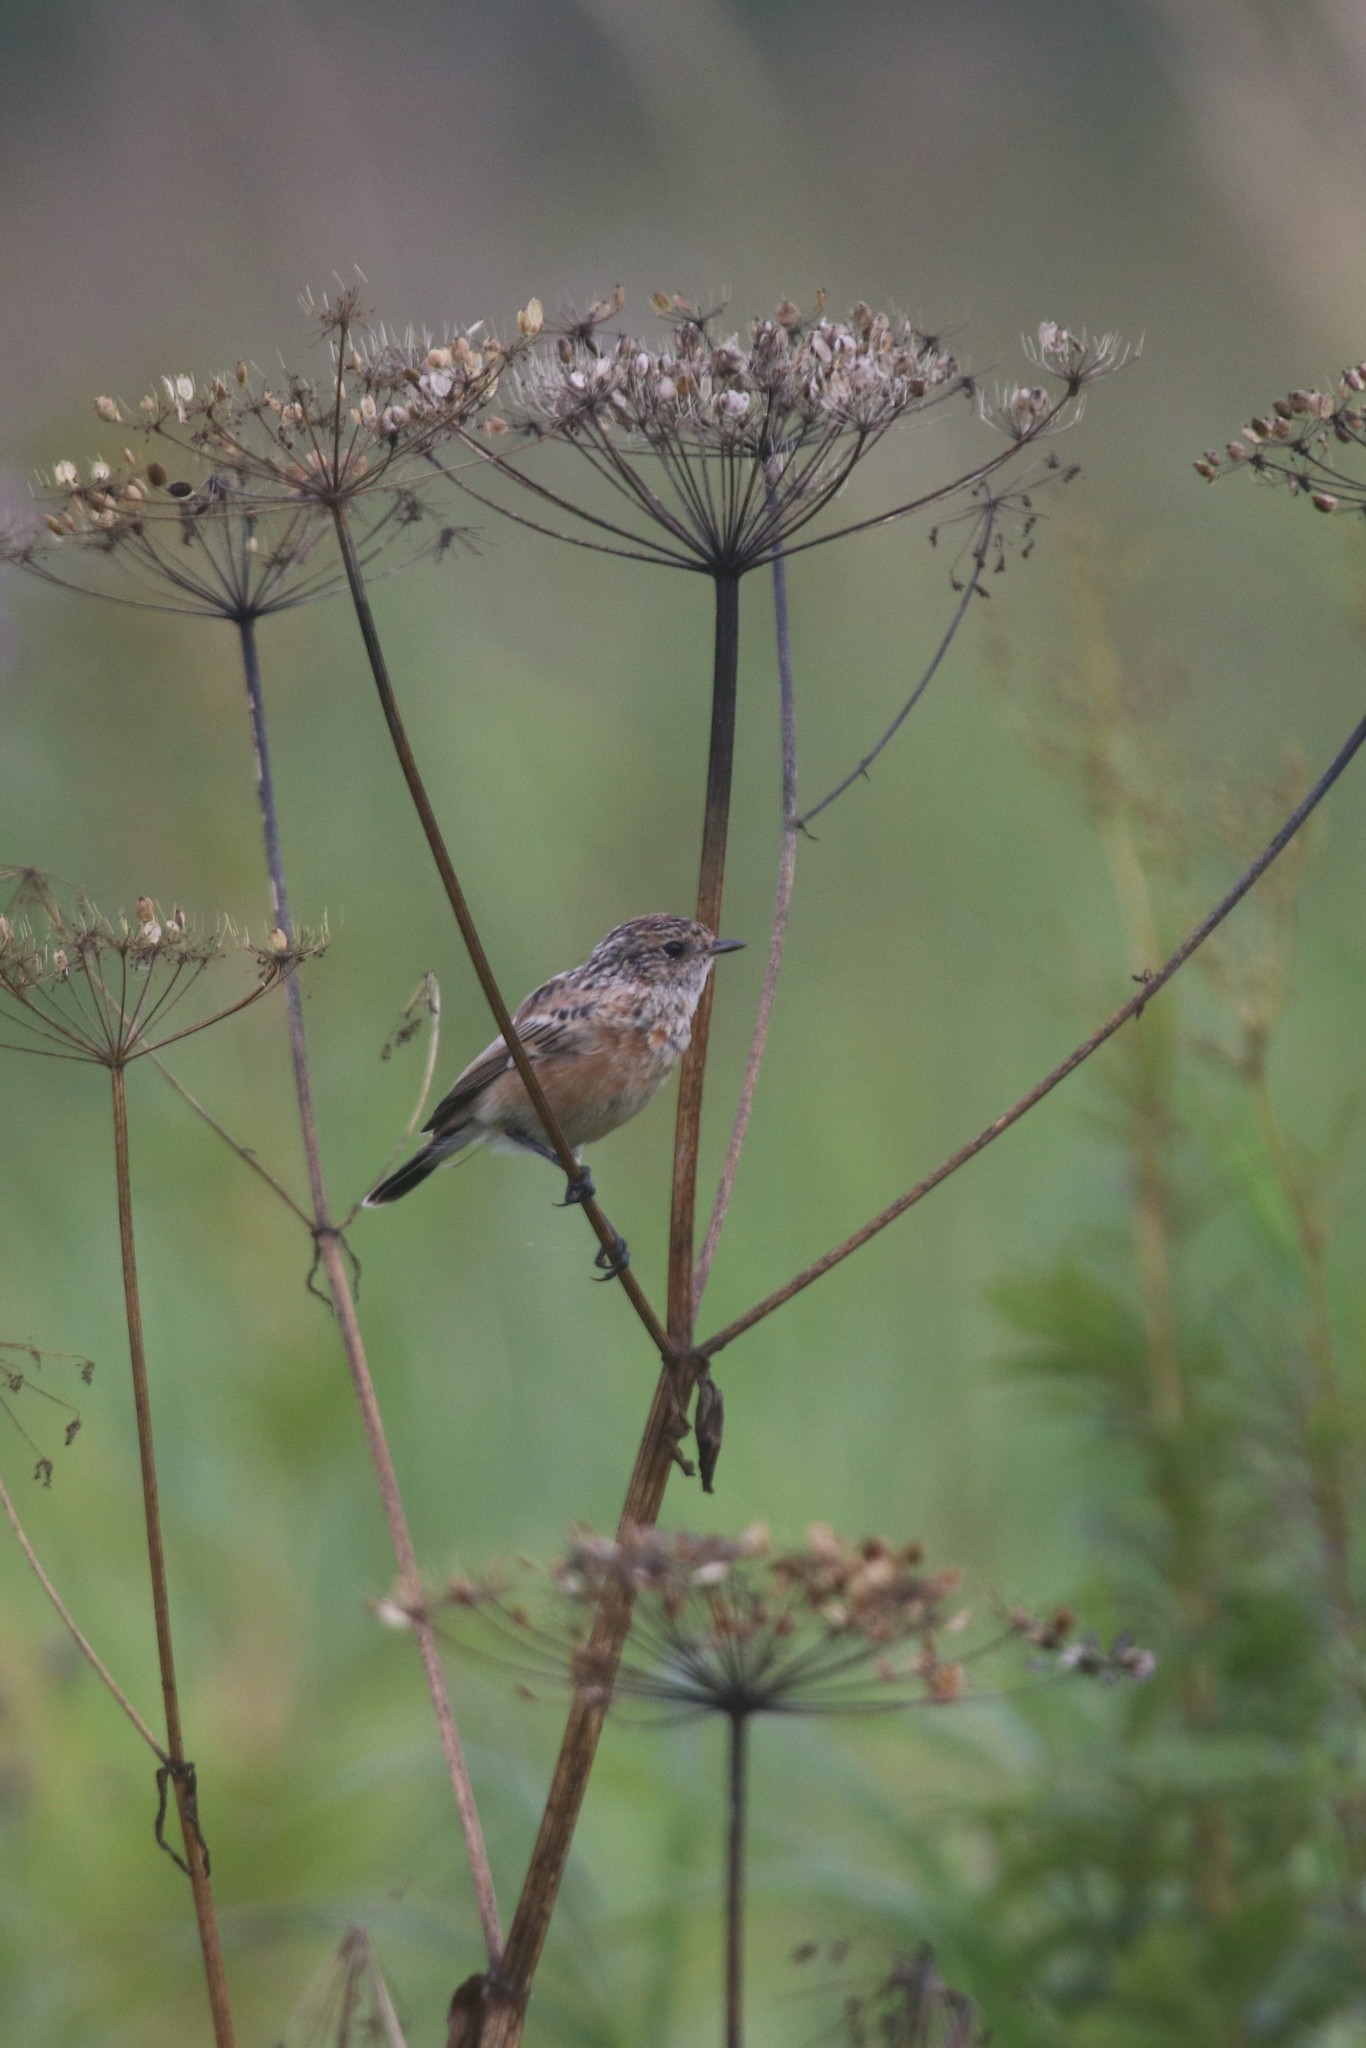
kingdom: Animalia
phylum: Chordata
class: Aves
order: Passeriformes
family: Muscicapidae
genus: Saxicola
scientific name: Saxicola maurus
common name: Siberian stonechat
